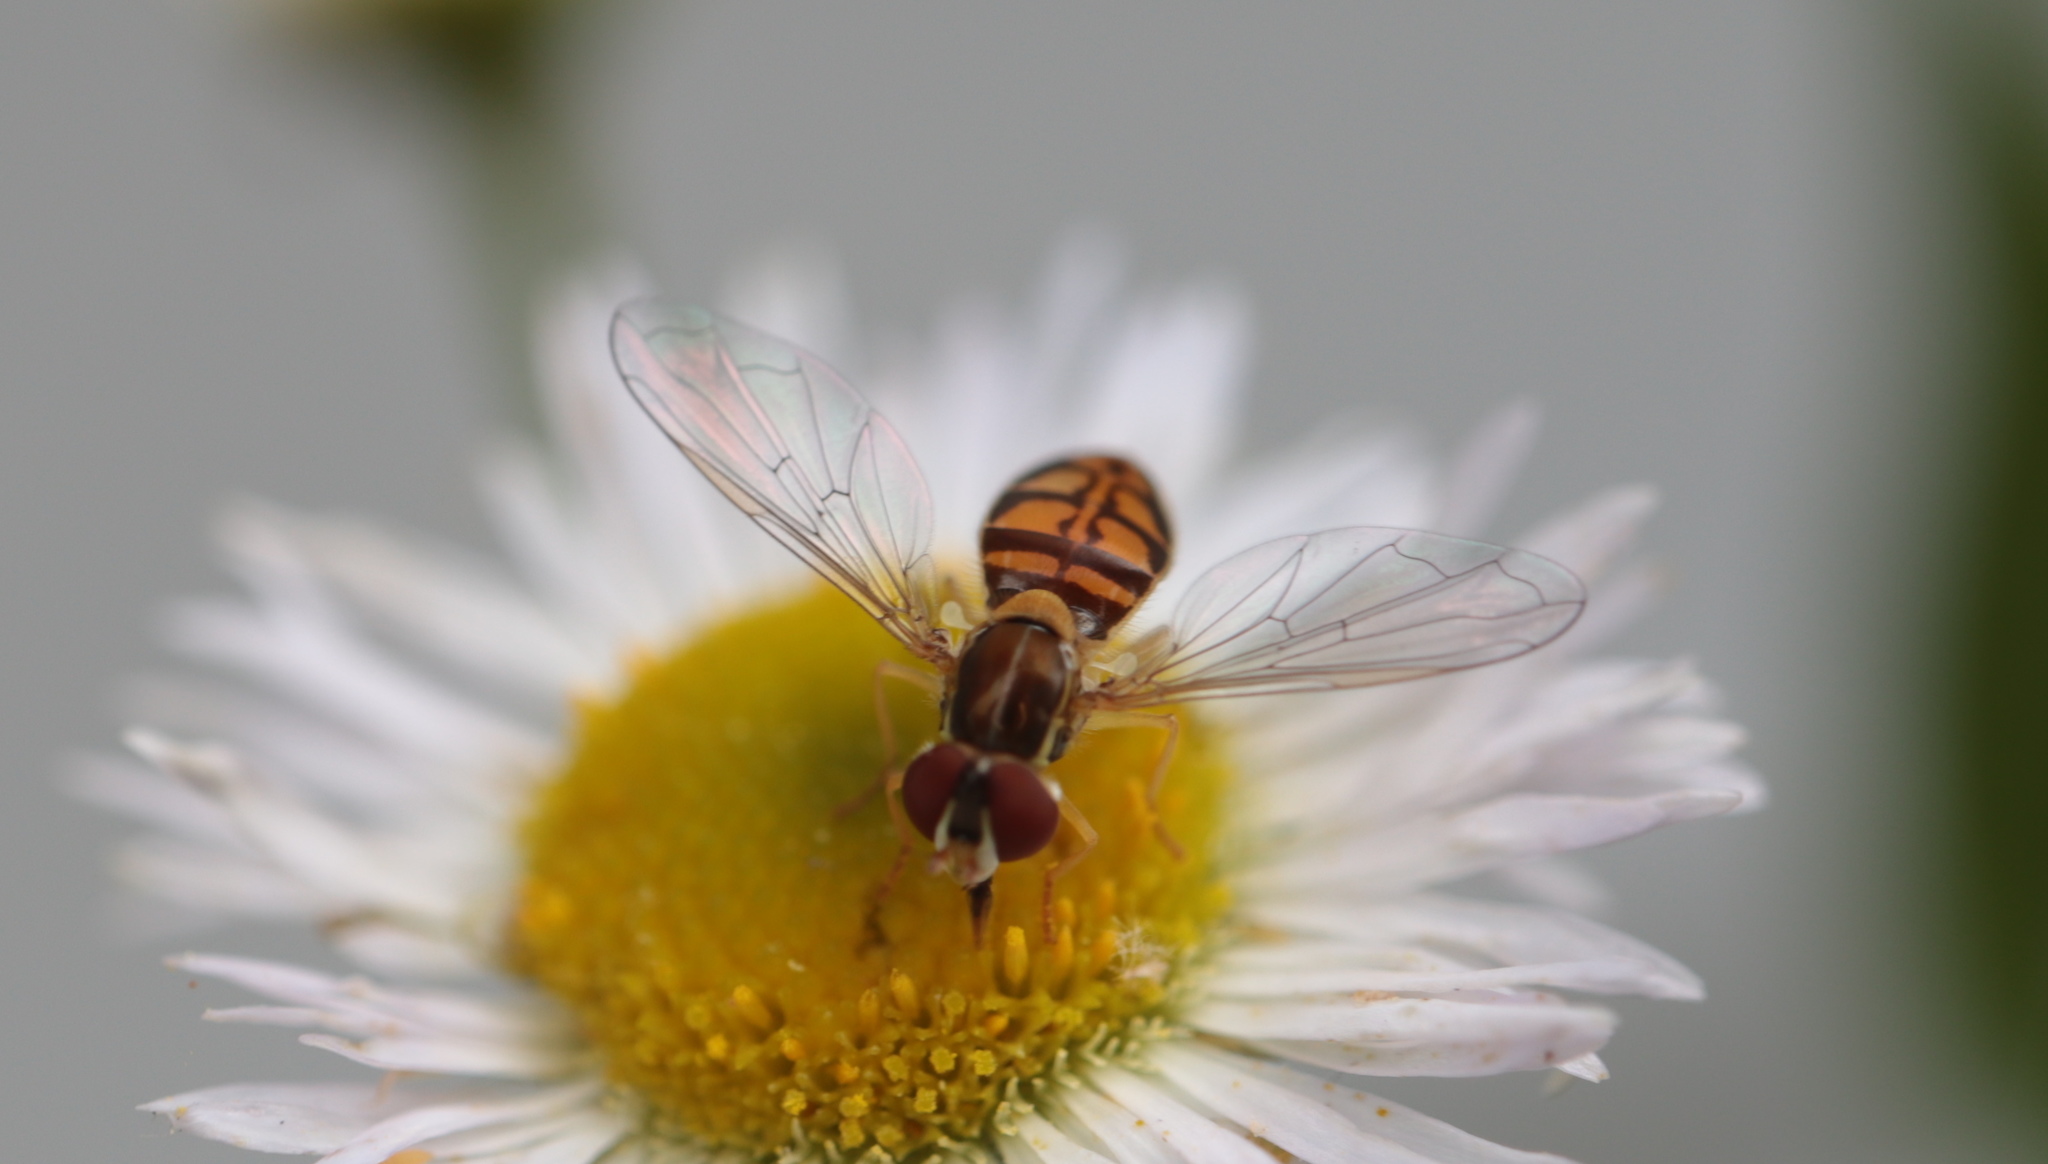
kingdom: Animalia
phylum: Arthropoda
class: Insecta
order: Diptera
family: Syrphidae
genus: Toxomerus
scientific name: Toxomerus marginatus
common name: Syrphid fly
